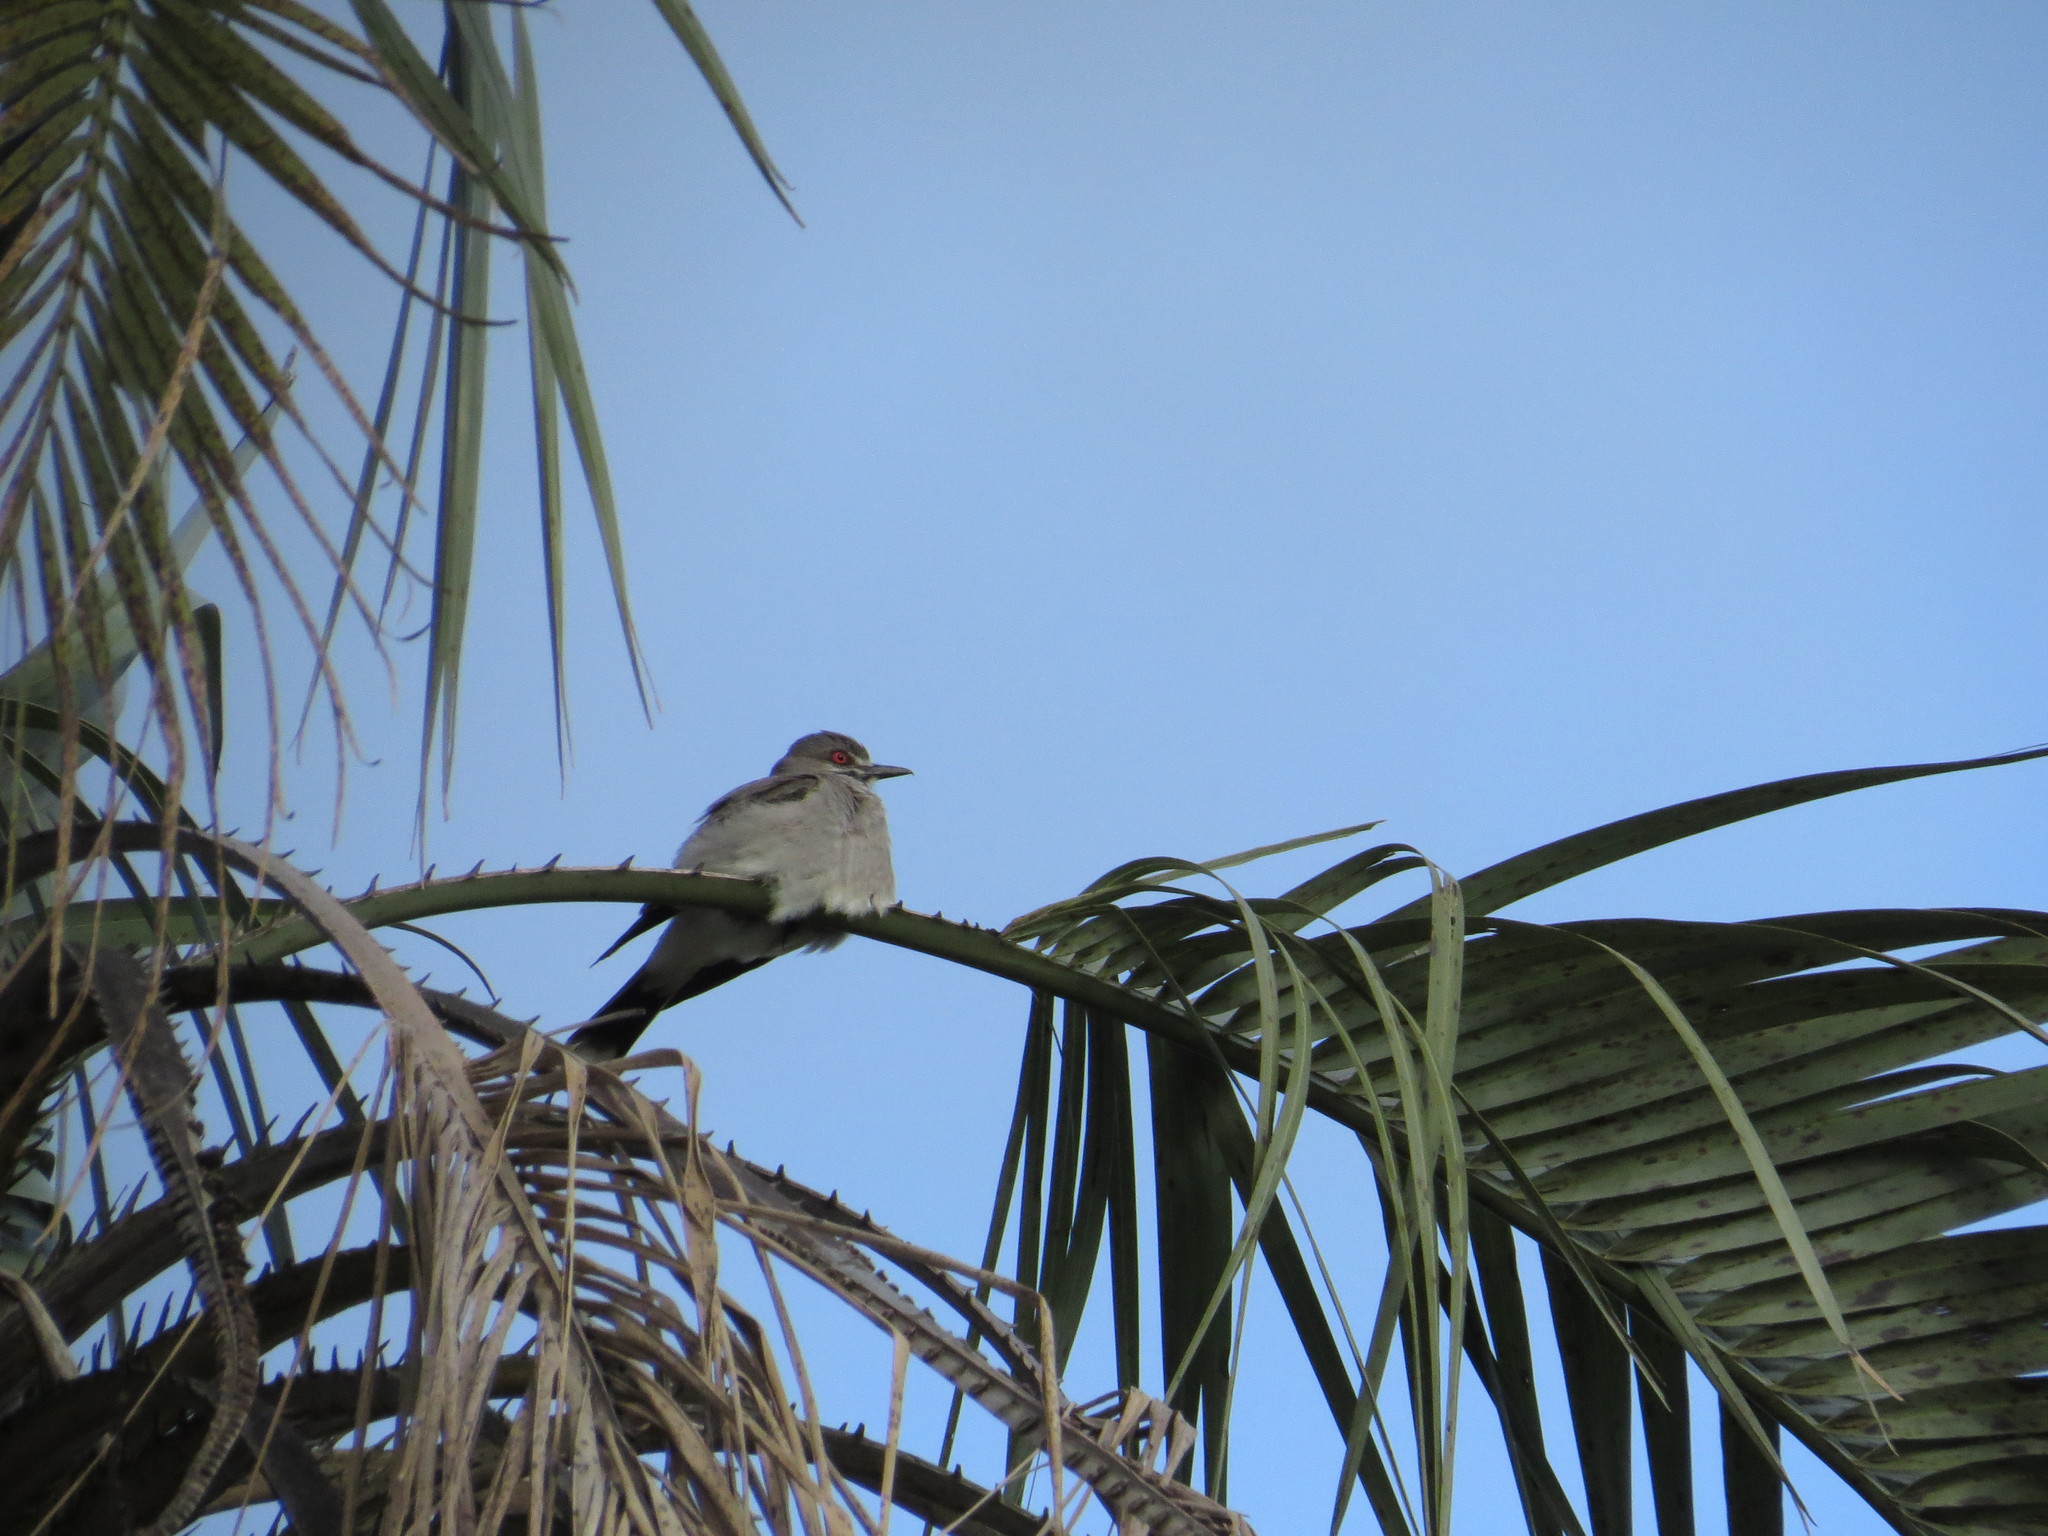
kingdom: Animalia
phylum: Chordata
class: Aves
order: Passeriformes
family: Tyrannidae
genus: Xolmis
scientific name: Xolmis cinereus
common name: Grey monjita
